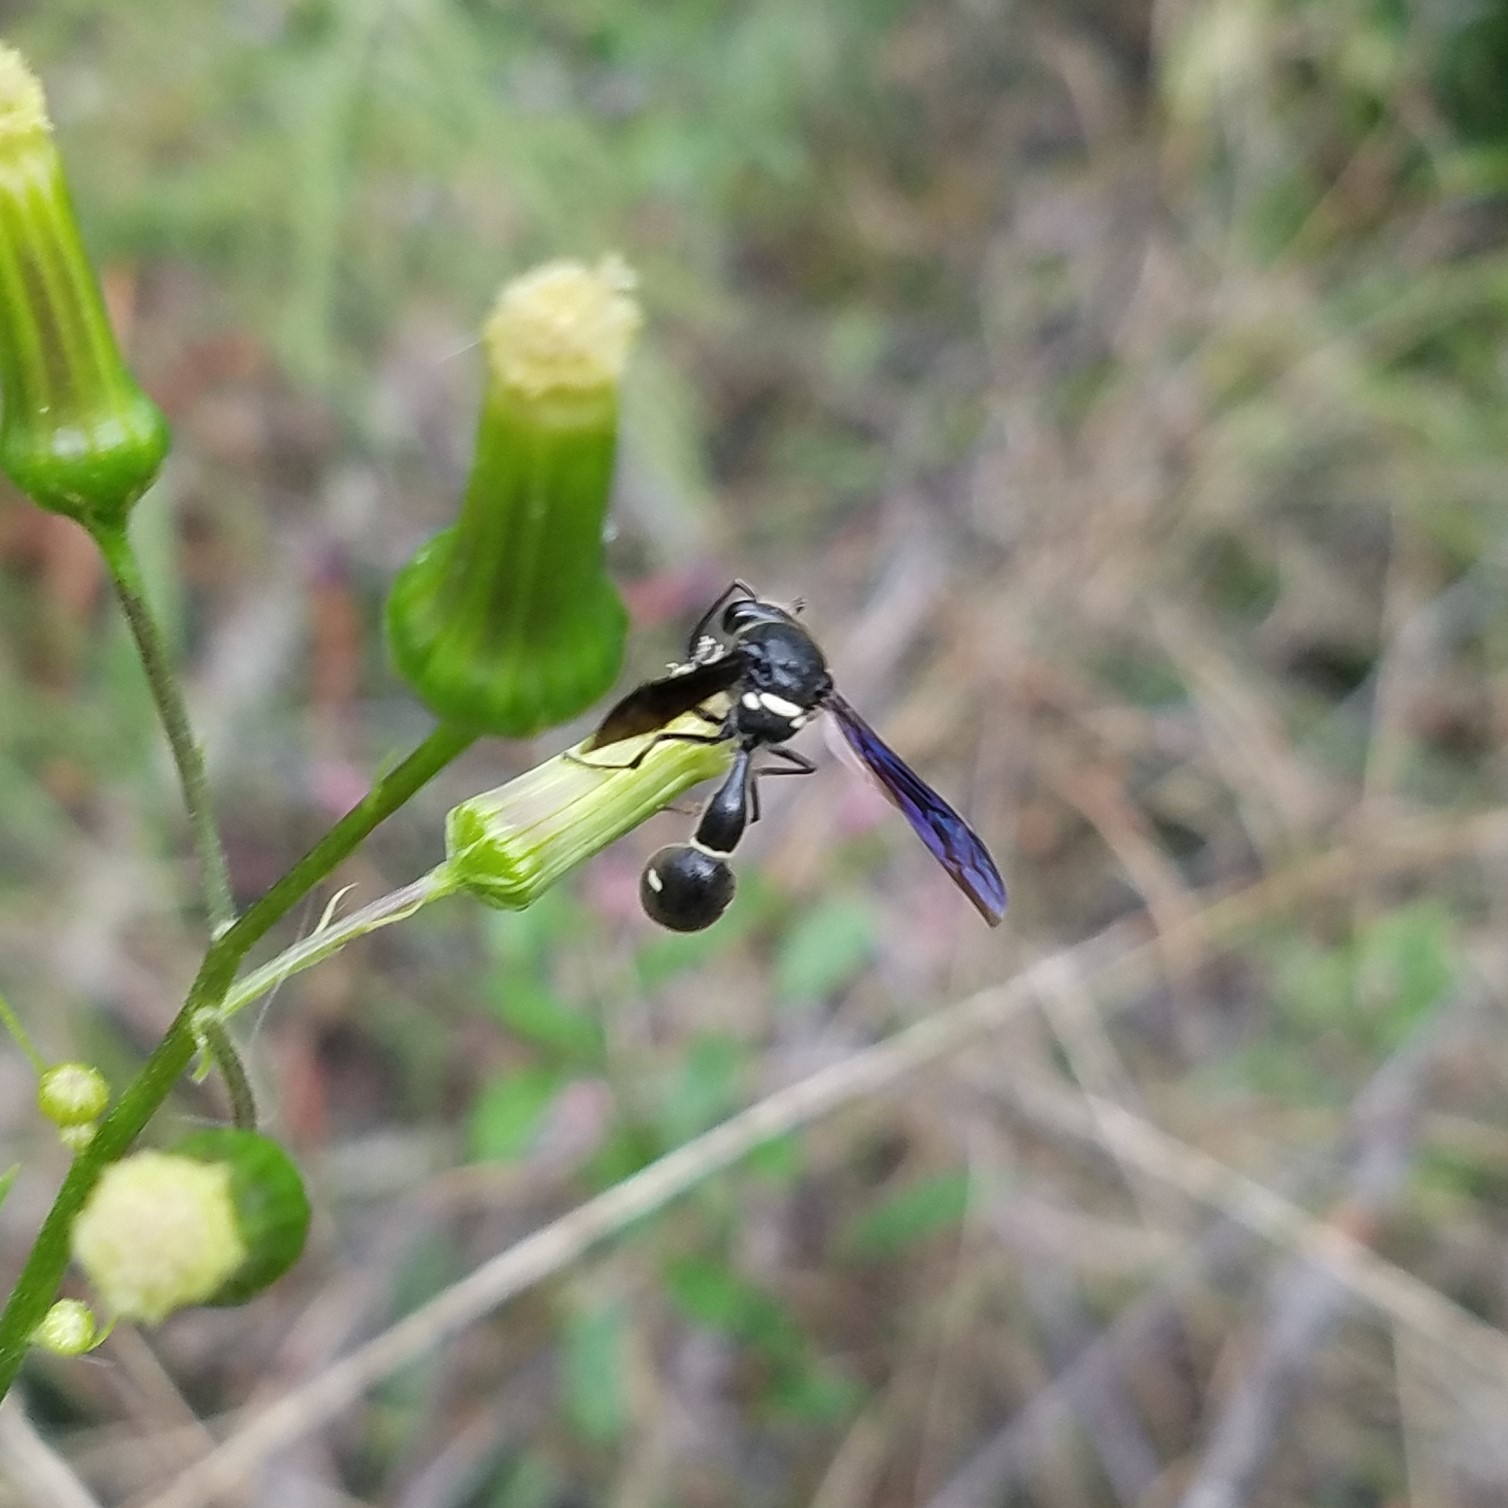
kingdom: Animalia
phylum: Arthropoda
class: Insecta
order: Hymenoptera
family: Vespidae
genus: Eumenes
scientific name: Eumenes fraternus
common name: Fraternal potter wasp
